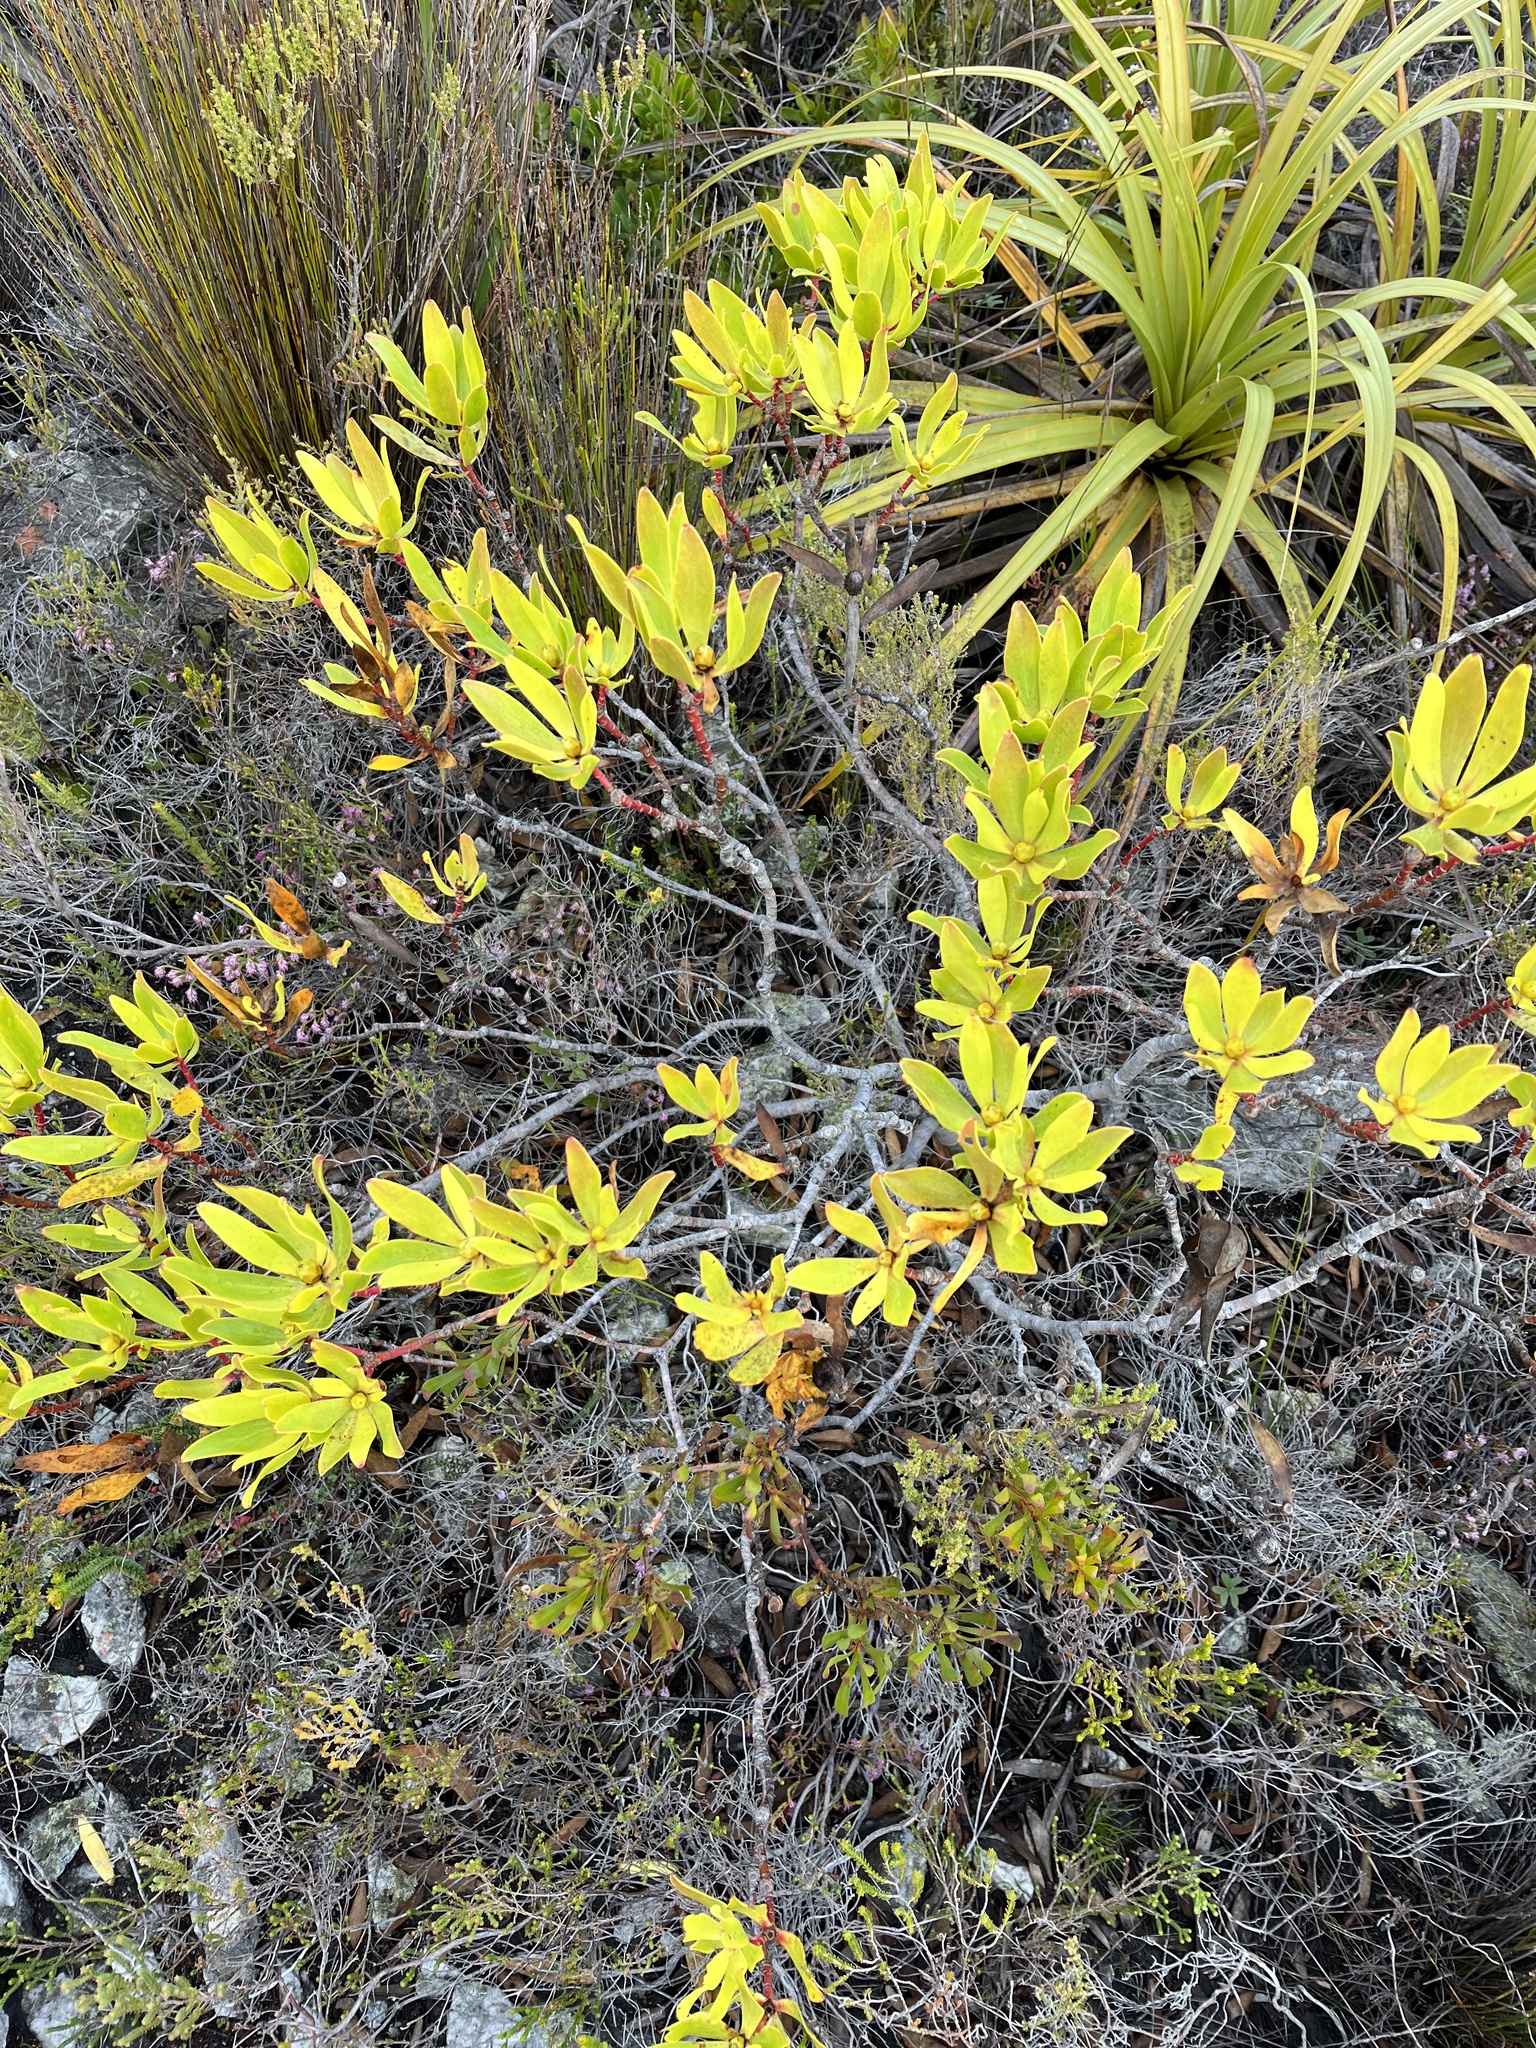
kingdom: Plantae
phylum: Tracheophyta
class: Magnoliopsida
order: Proteales
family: Proteaceae
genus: Leucadendron
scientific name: Leucadendron gandogeri
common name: Broad-leaf conebush
